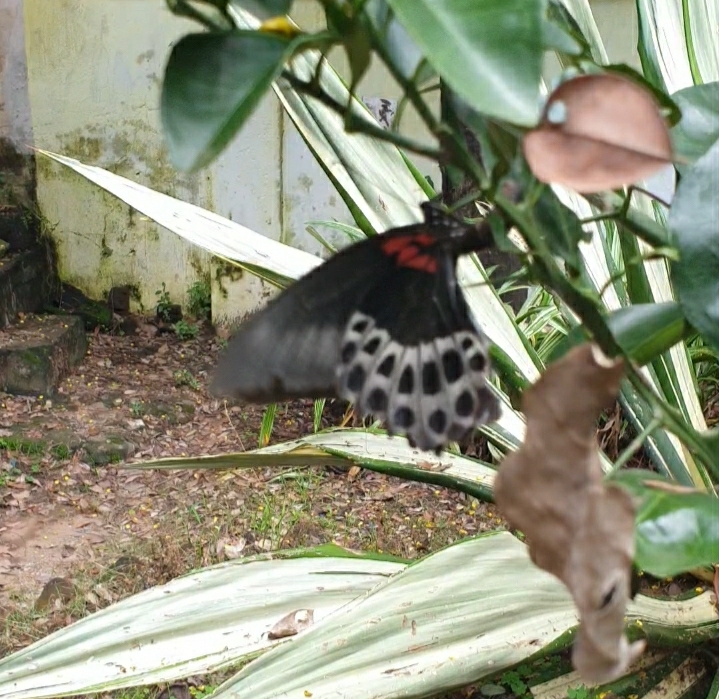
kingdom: Animalia
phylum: Arthropoda
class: Insecta
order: Lepidoptera
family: Papilionidae
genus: Papilio
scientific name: Papilio memnon
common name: Great mormon
